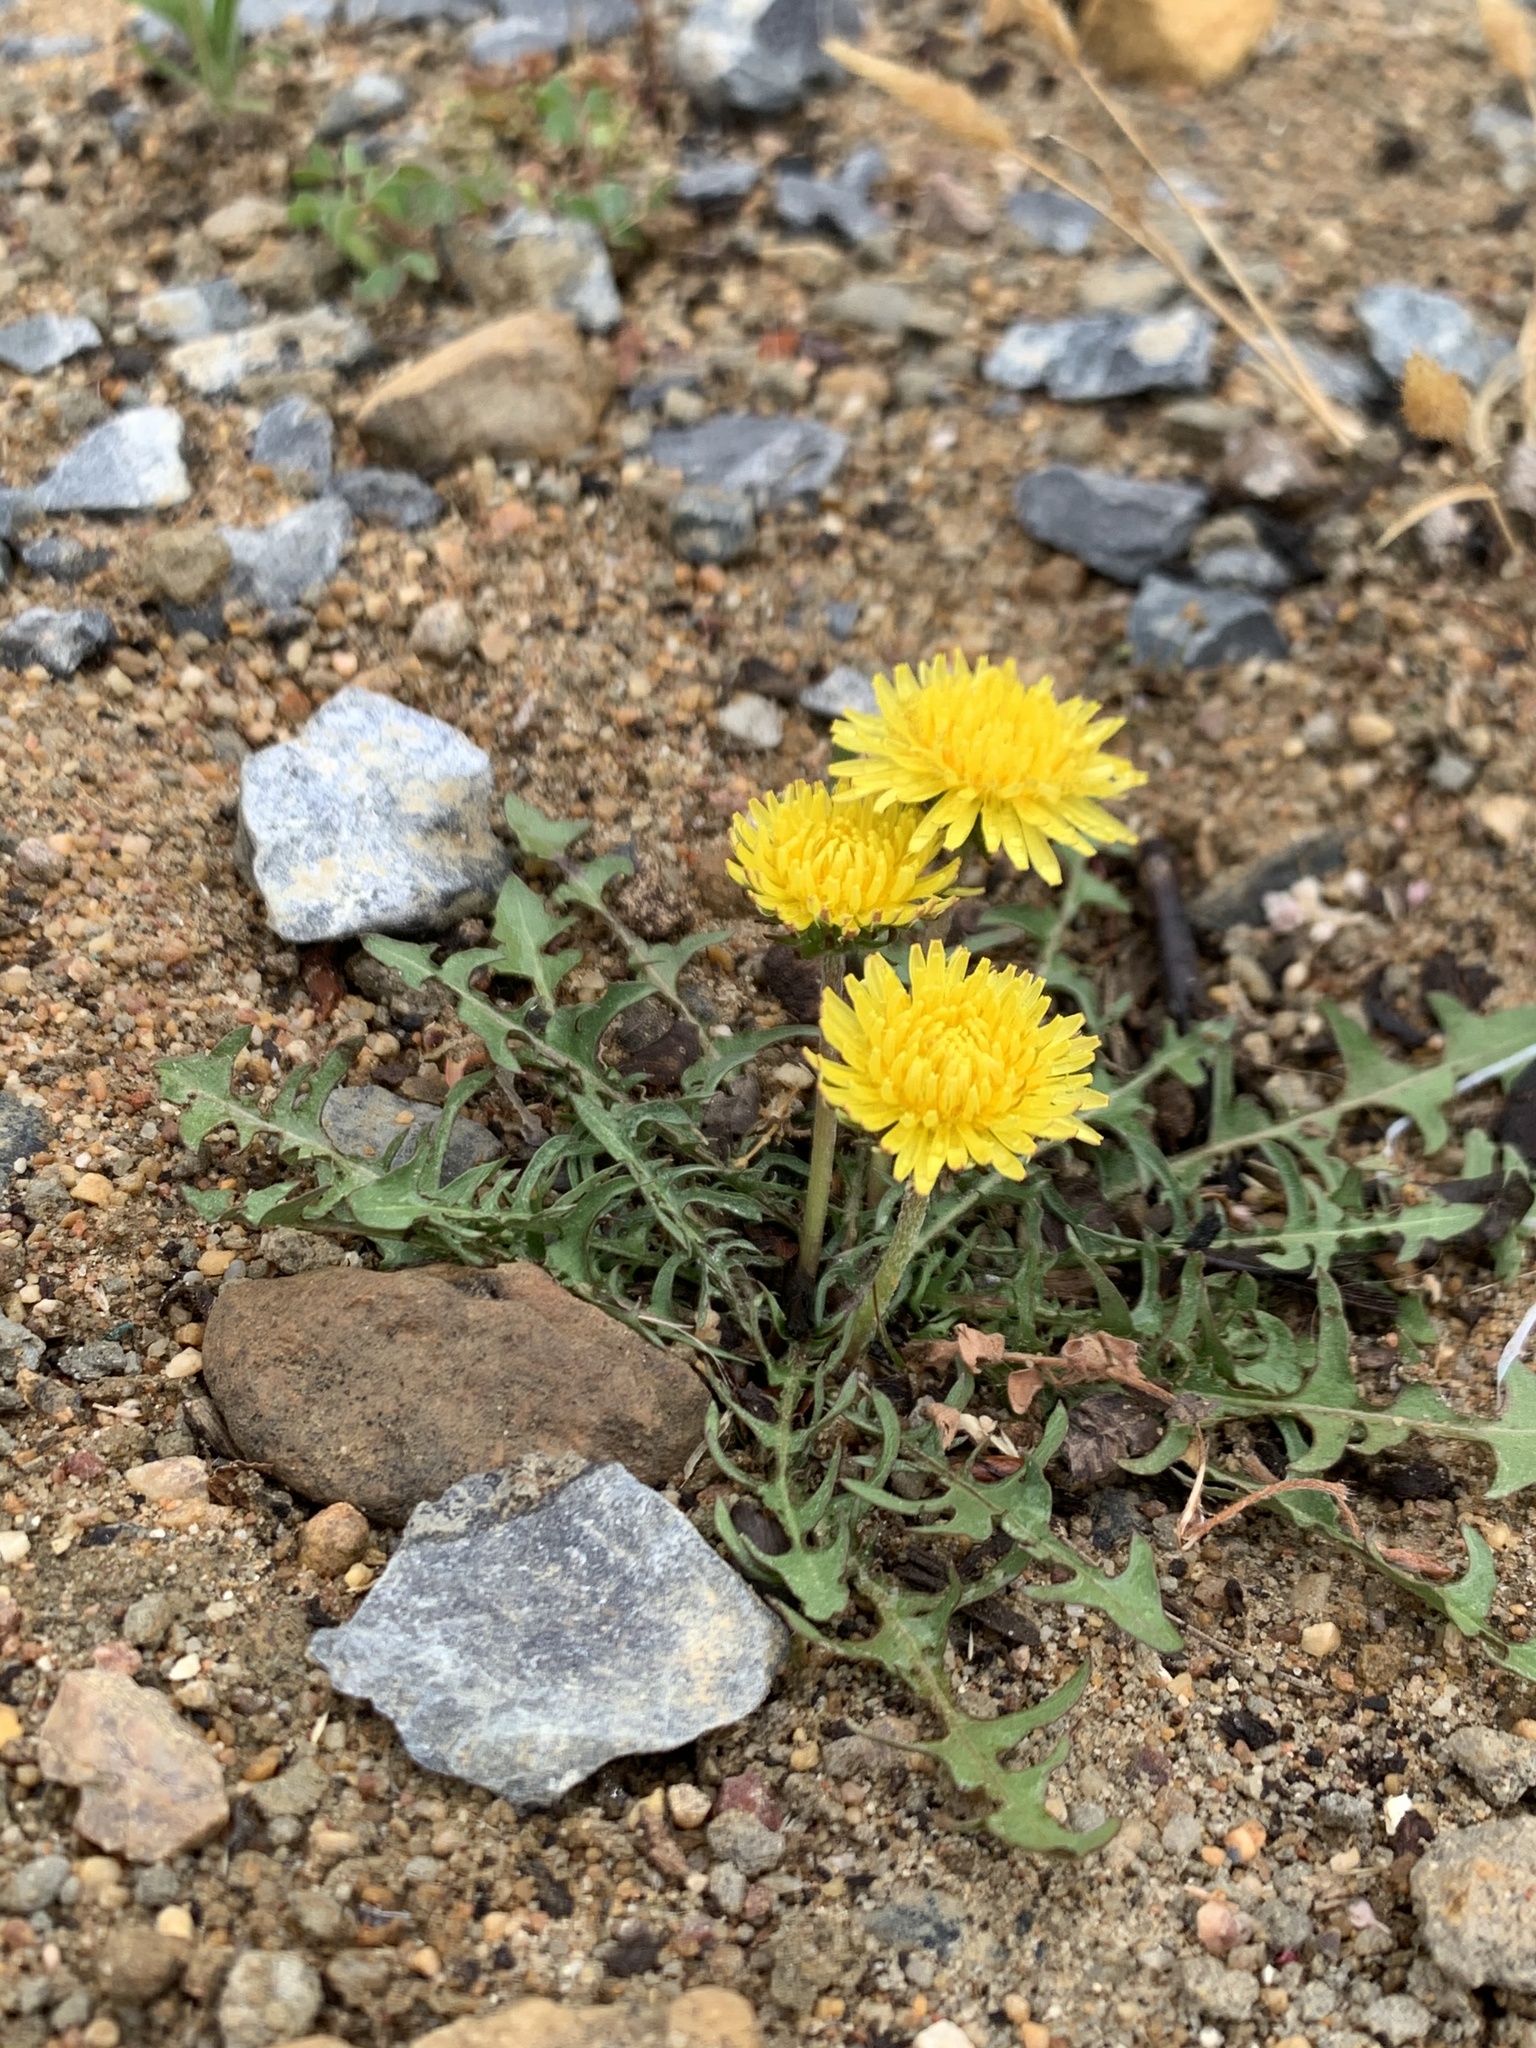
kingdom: Plantae
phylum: Tracheophyta
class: Magnoliopsida
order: Asterales
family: Asteraceae
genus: Taraxacum
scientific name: Taraxacum officinale
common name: Common dandelion
